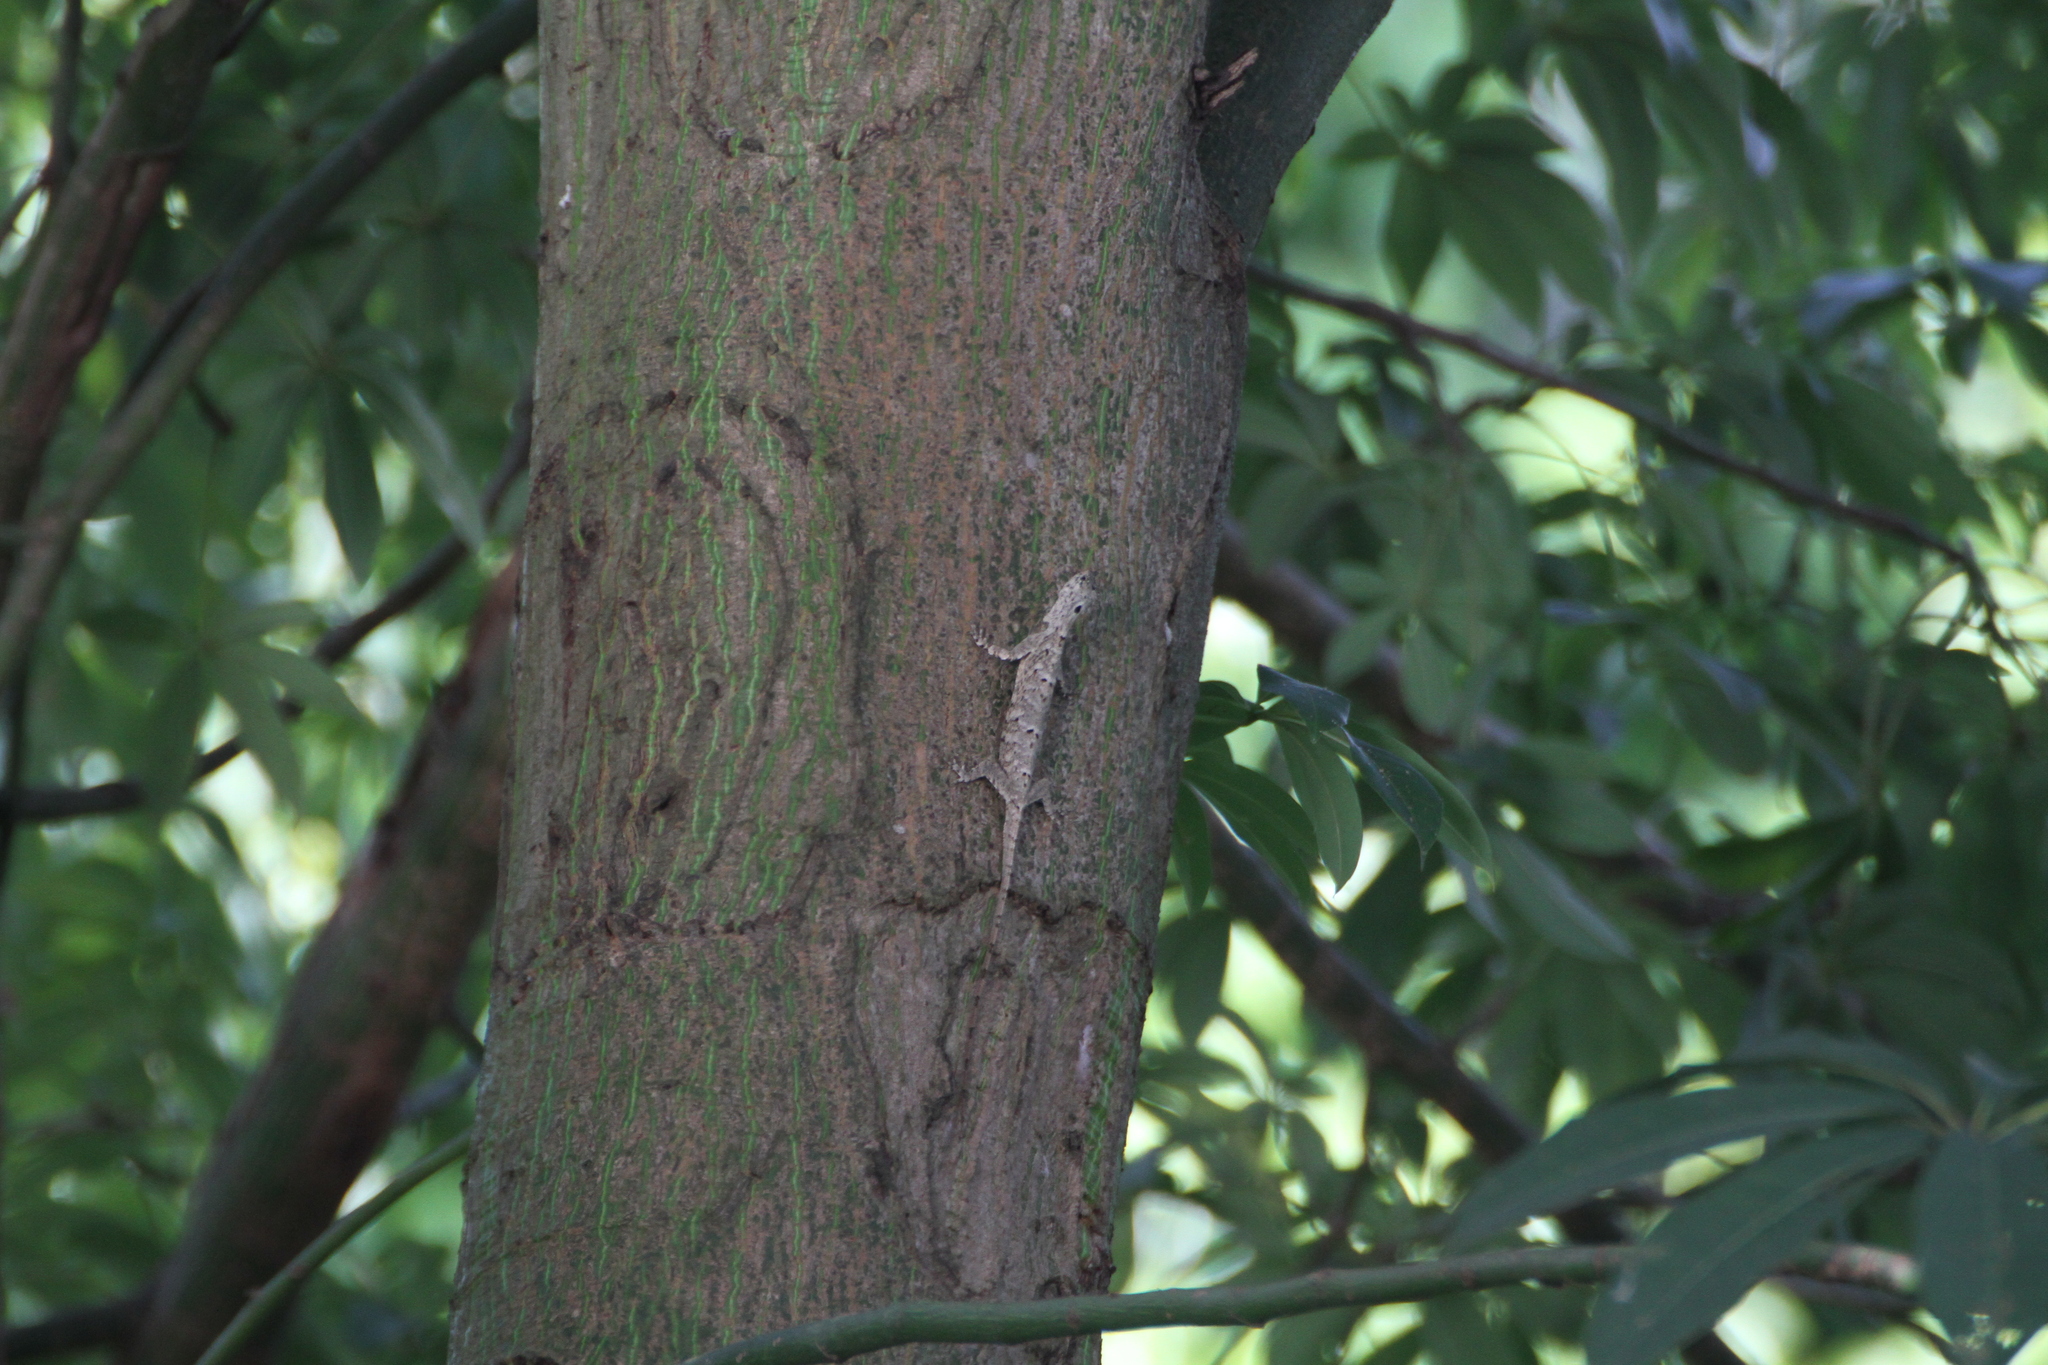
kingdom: Animalia
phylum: Chordata
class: Squamata
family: Agamidae
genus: Draco
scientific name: Draco sumatranus
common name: Common gliding lizard
